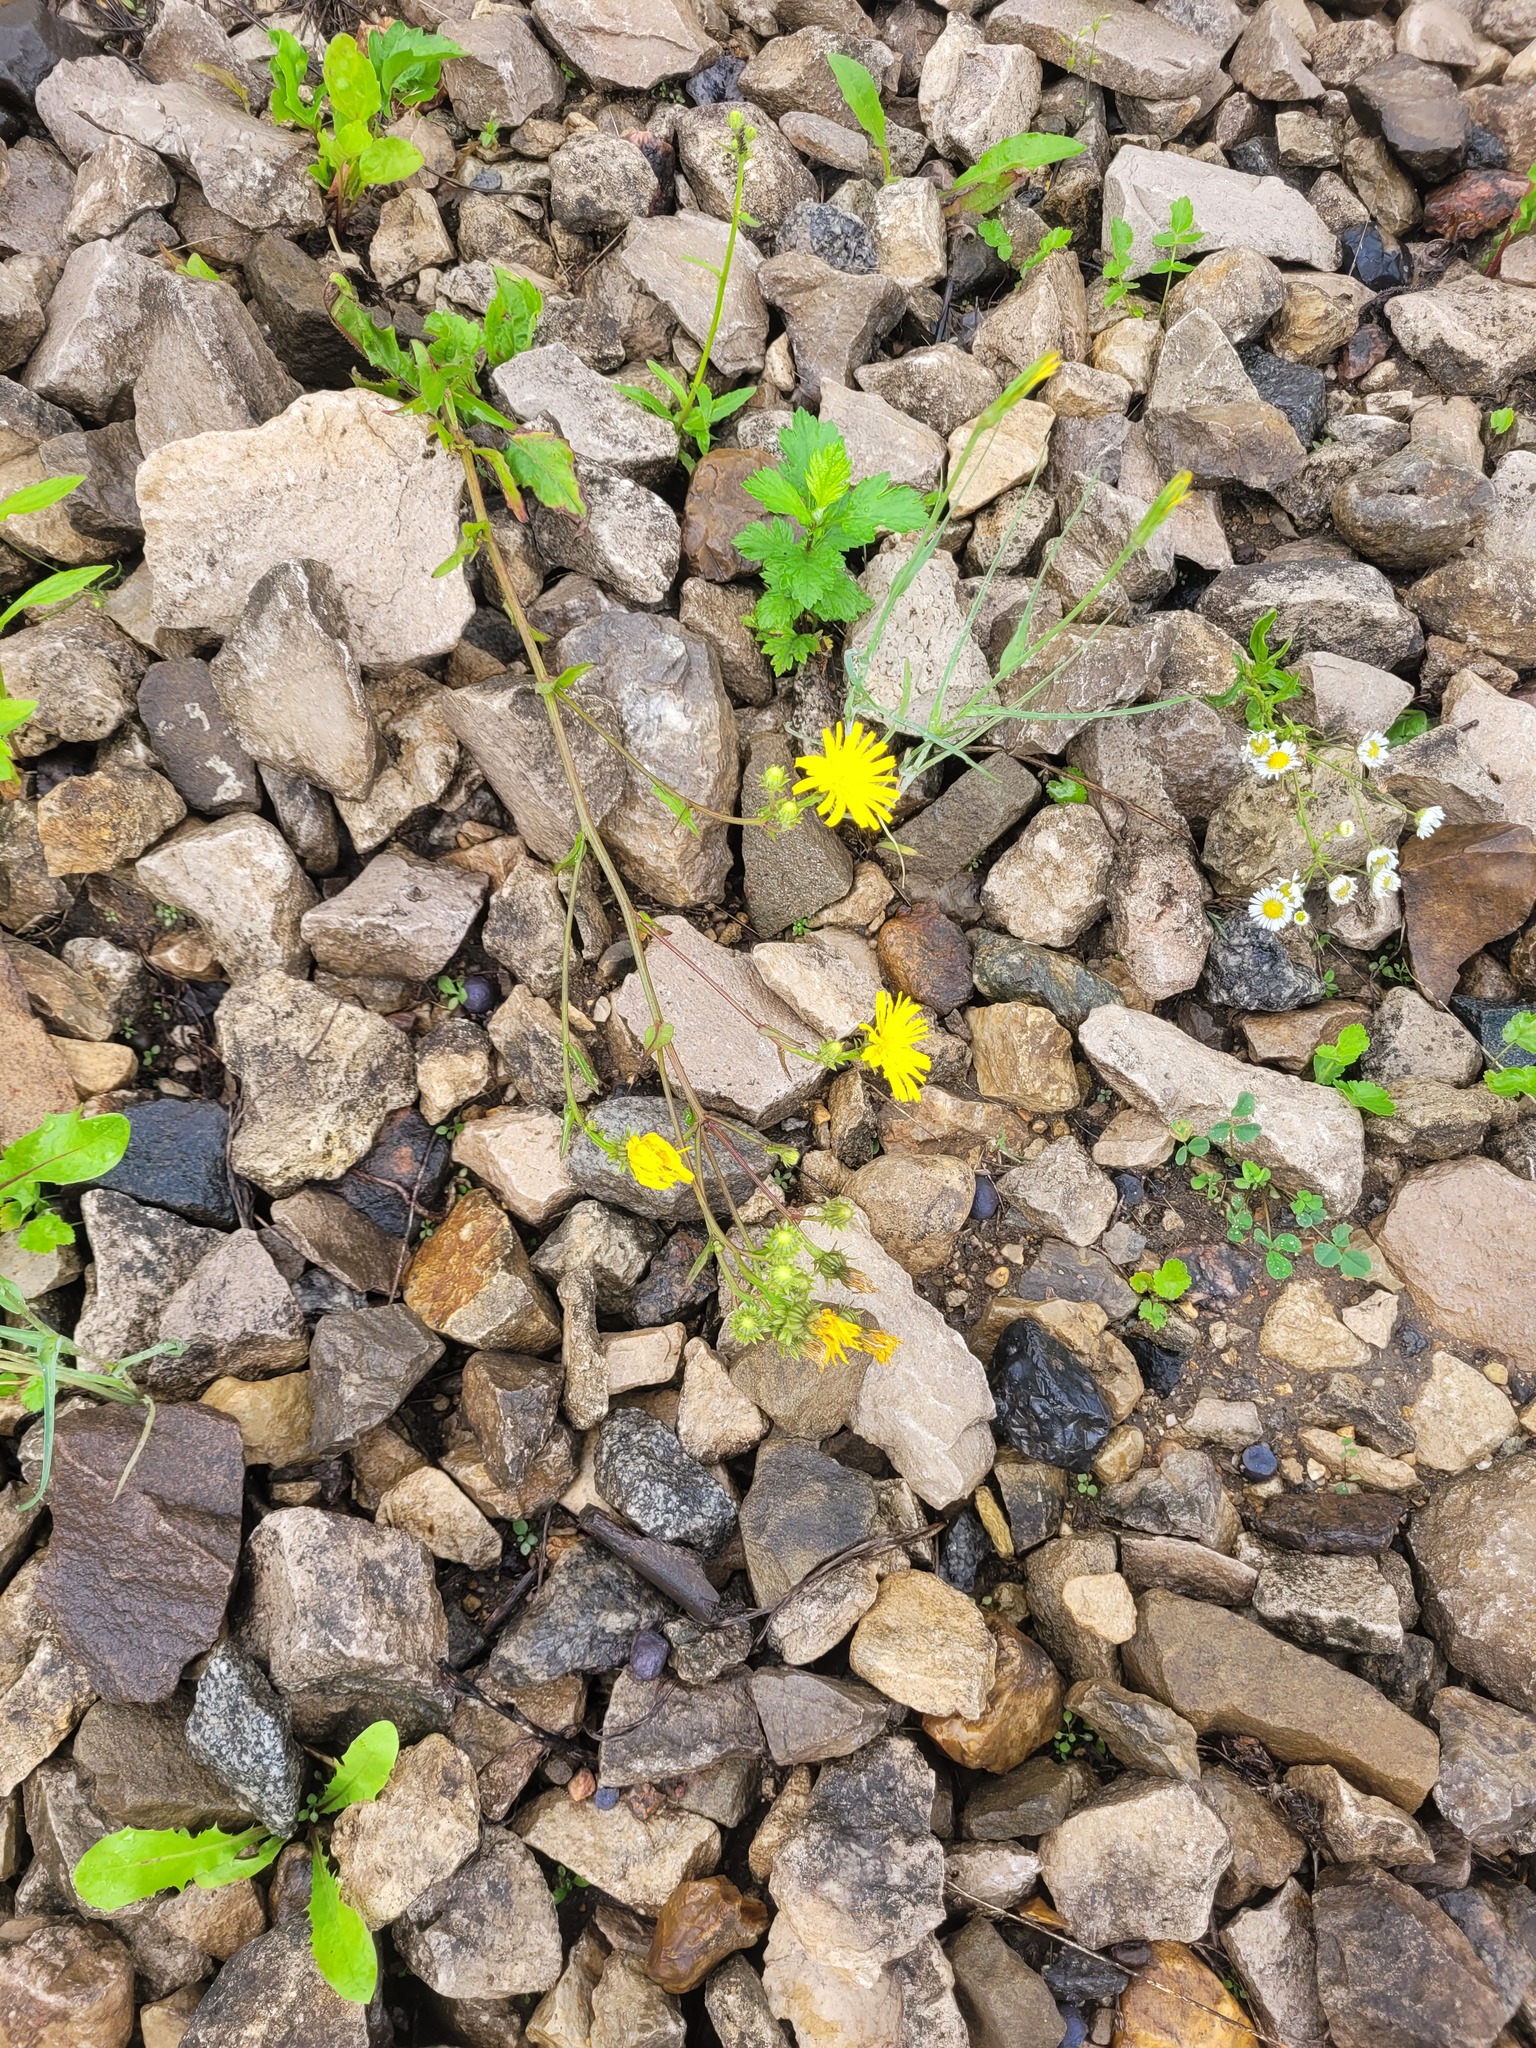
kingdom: Plantae
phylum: Tracheophyta
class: Magnoliopsida
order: Asterales
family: Asteraceae
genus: Picris
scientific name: Picris hieracioides
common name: Hawkweed oxtongue
